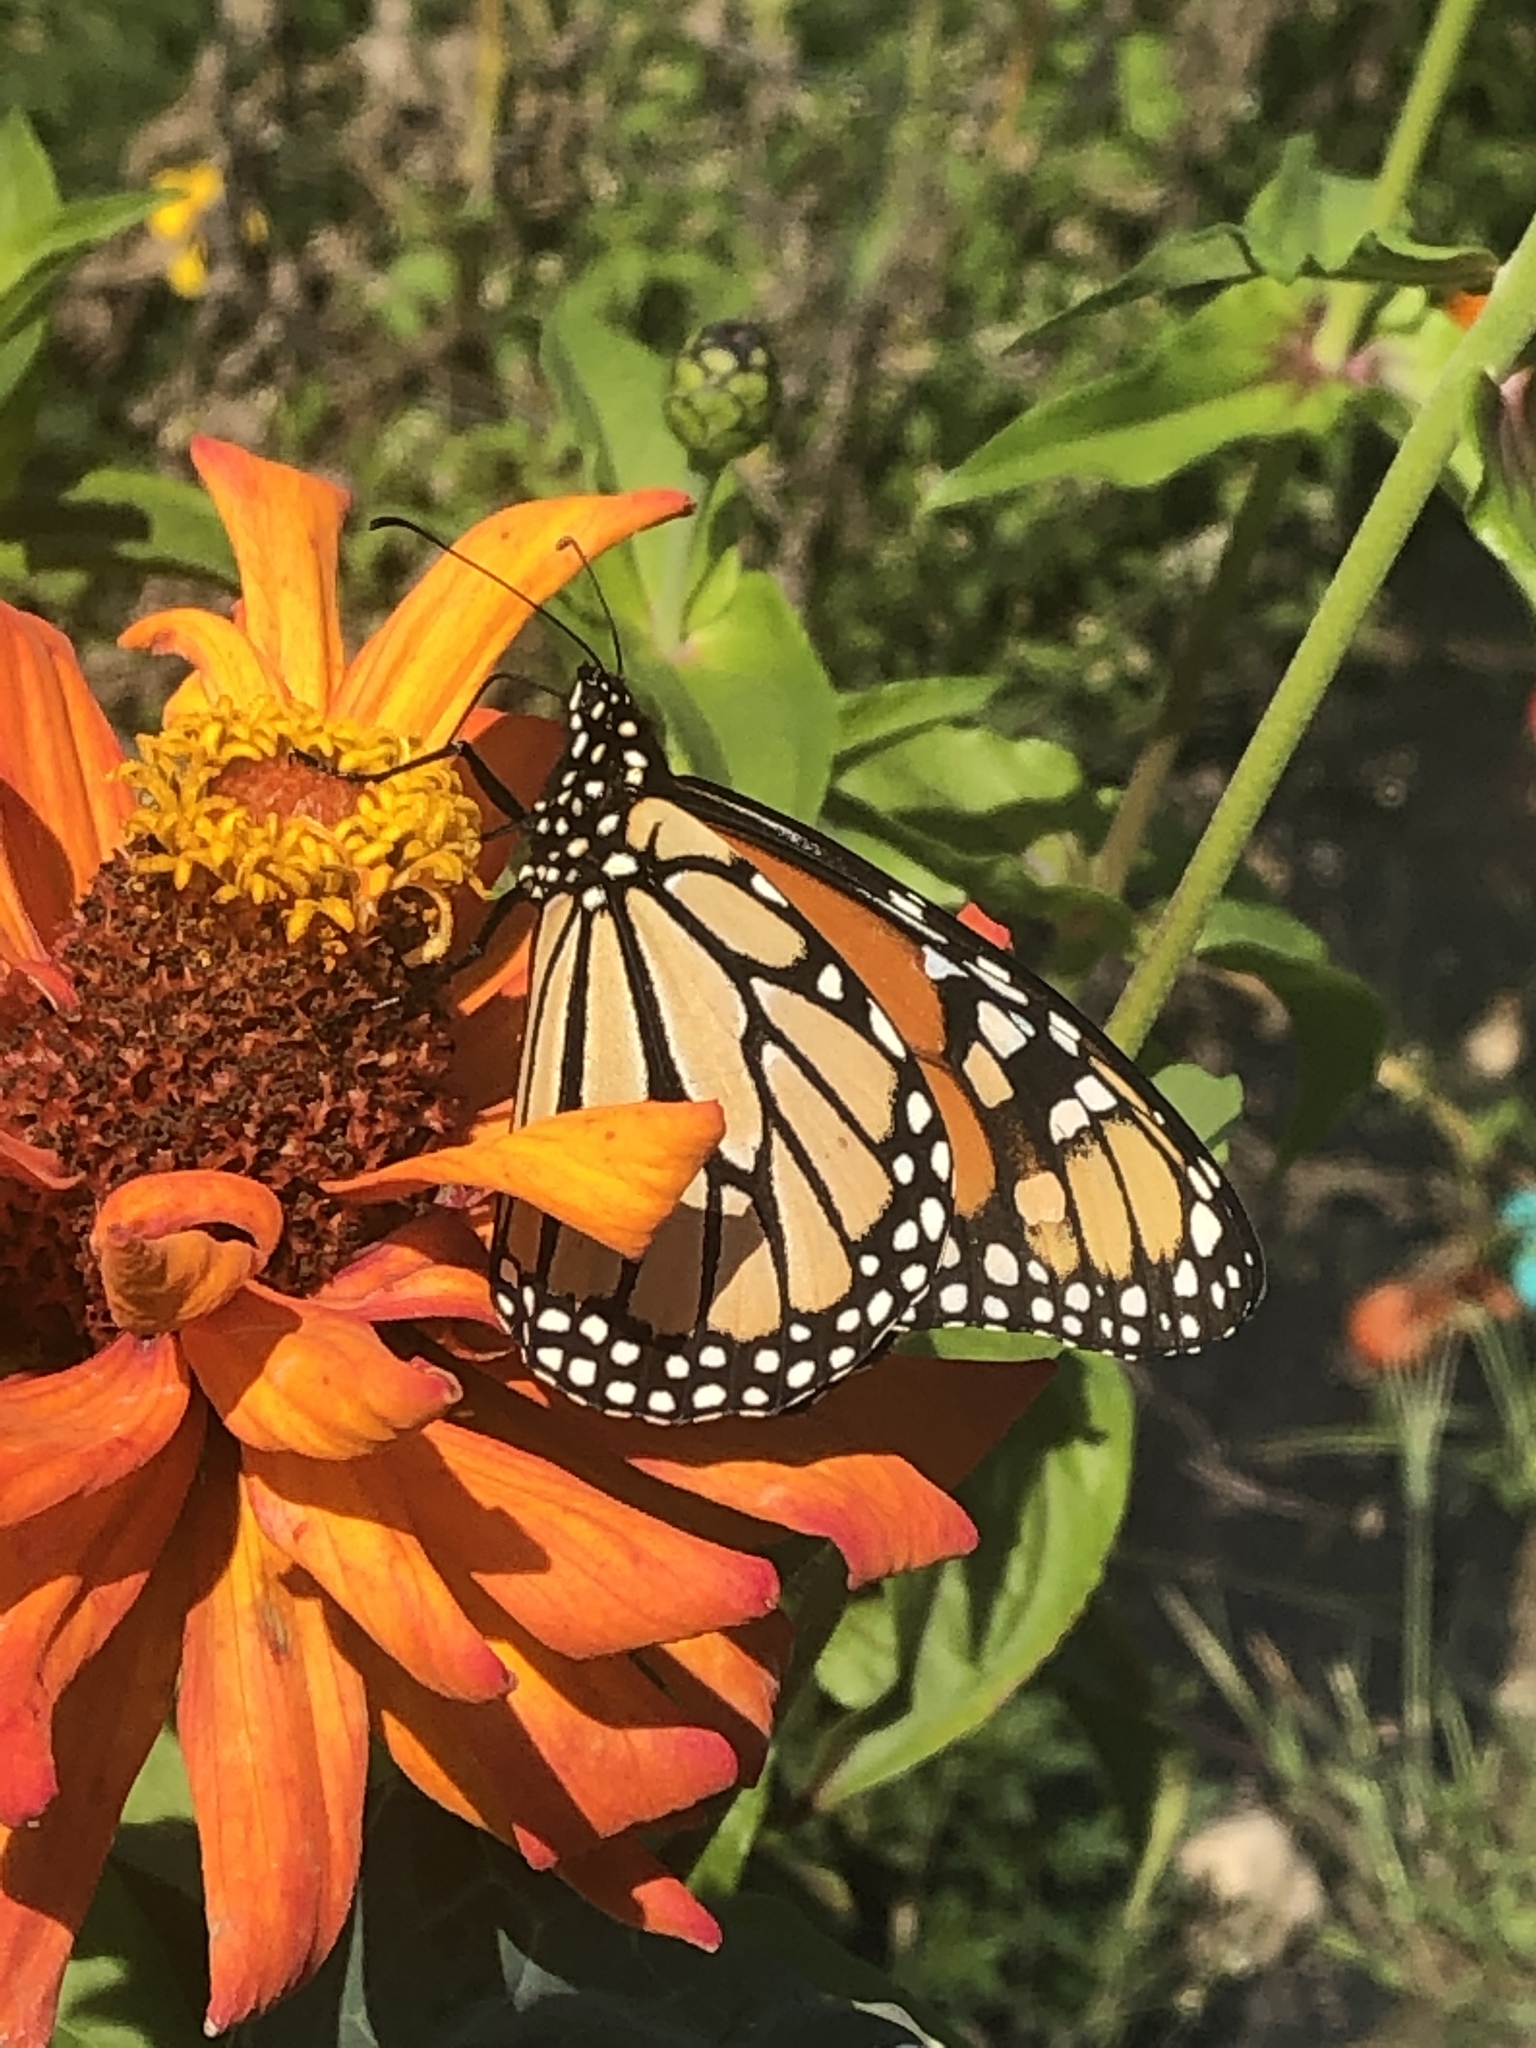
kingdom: Animalia
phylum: Arthropoda
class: Insecta
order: Lepidoptera
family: Nymphalidae
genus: Danaus
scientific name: Danaus plexippus
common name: Monarch
